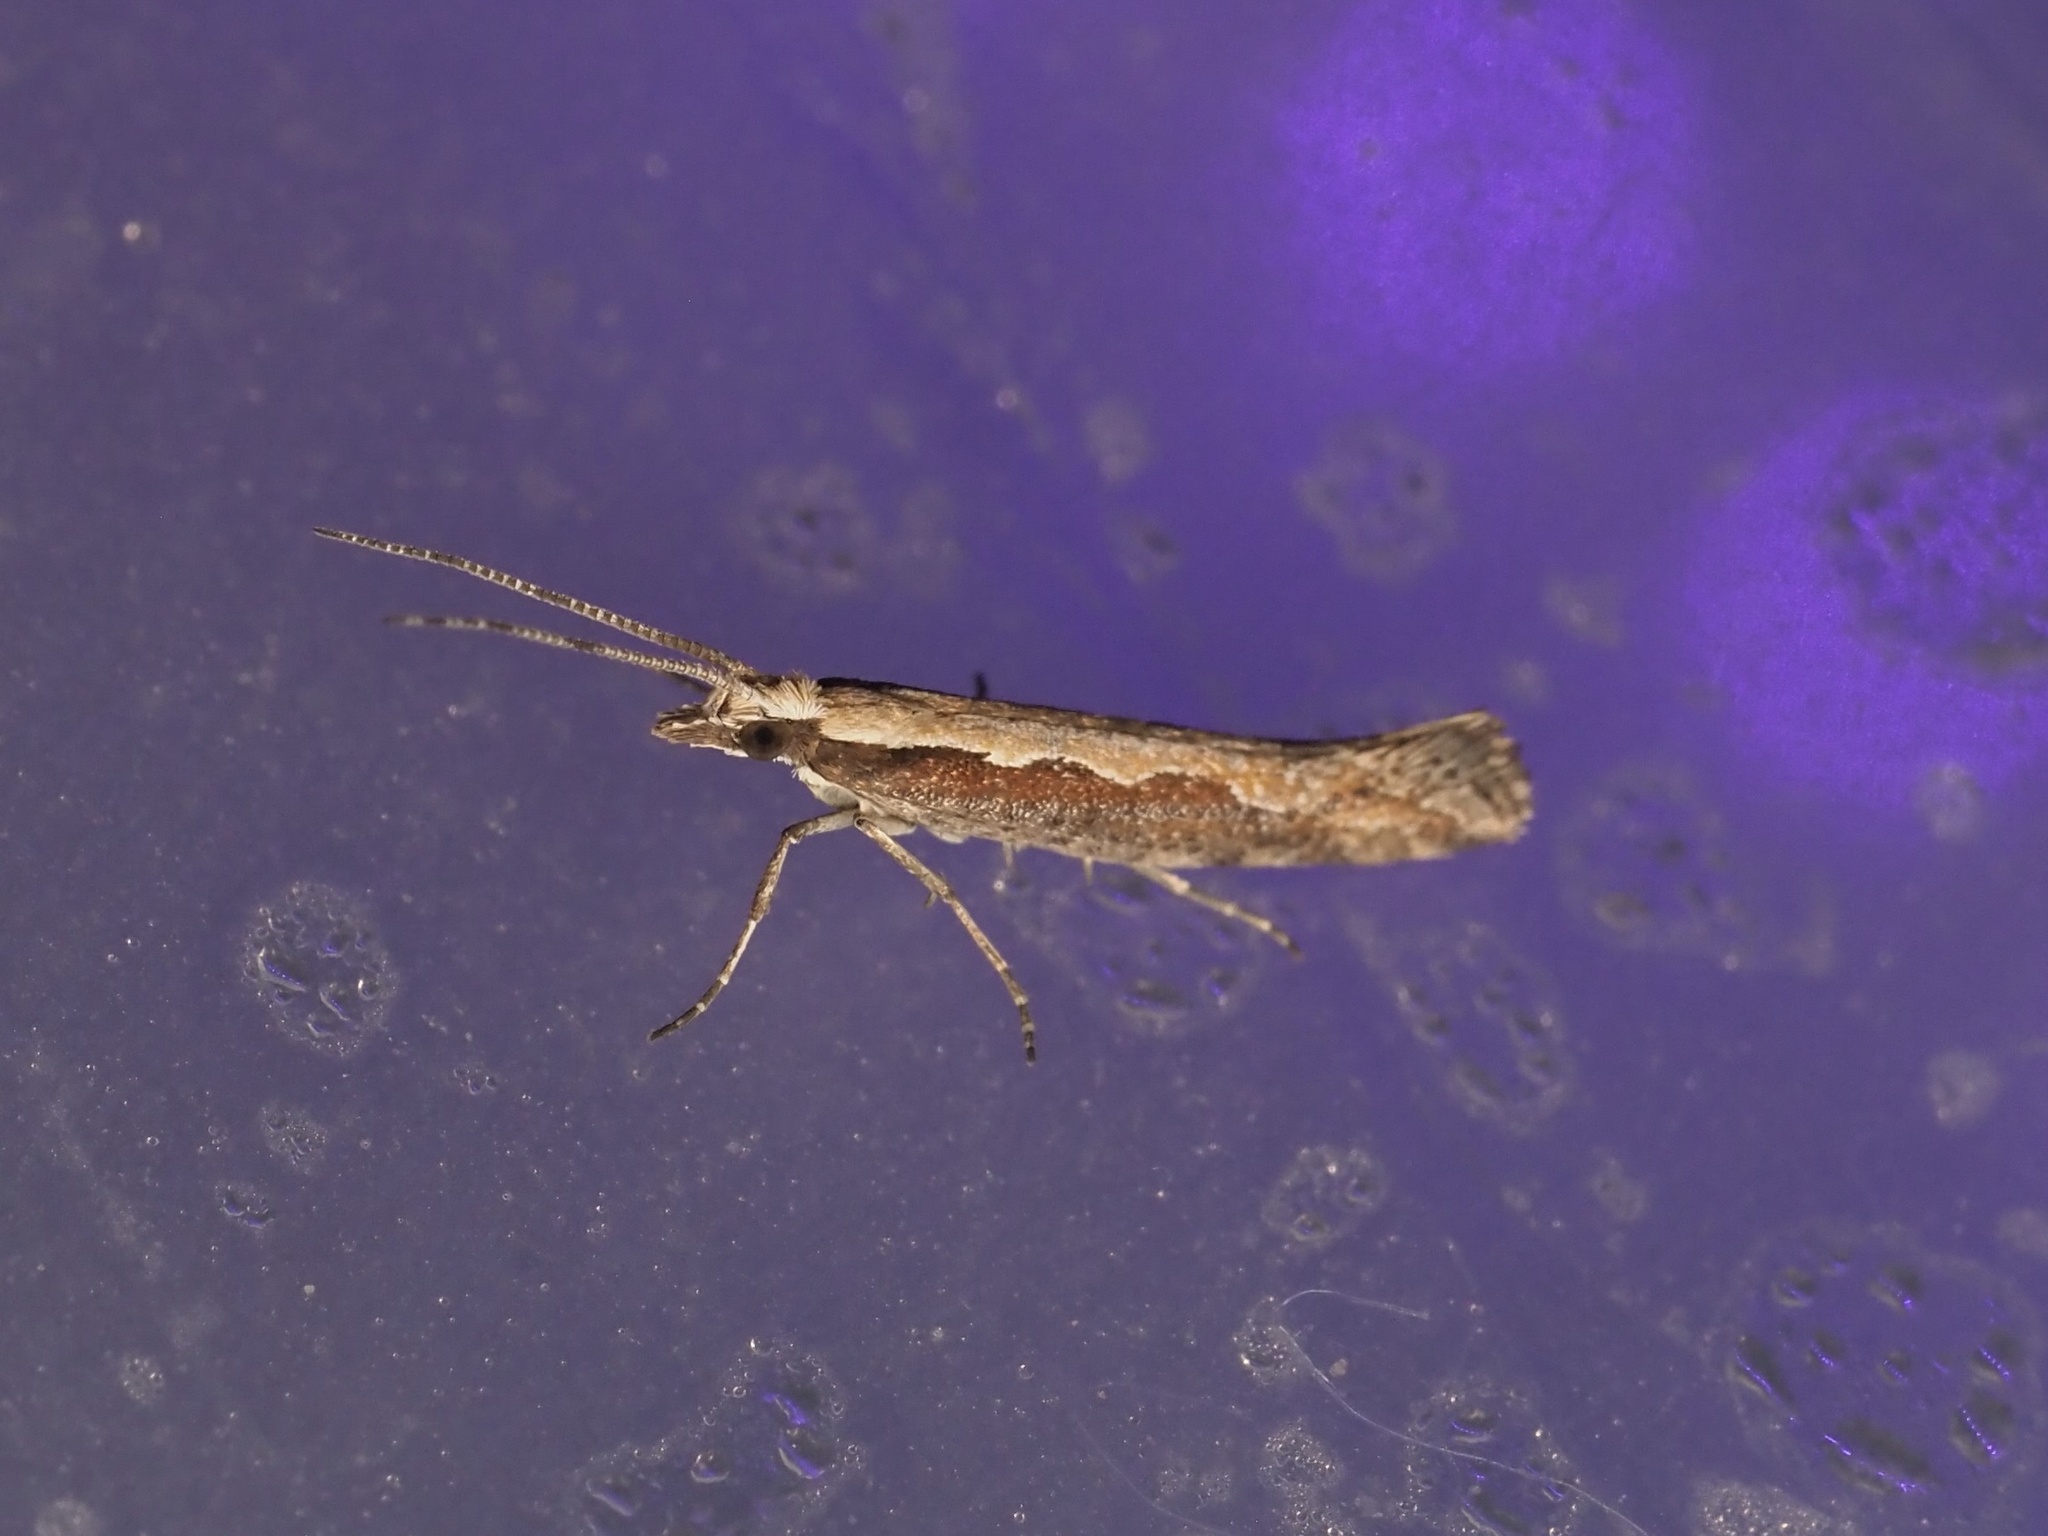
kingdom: Animalia
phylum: Arthropoda
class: Insecta
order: Lepidoptera
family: Plutellidae
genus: Plutella
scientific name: Plutella xylostella
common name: Diamond-back moth
